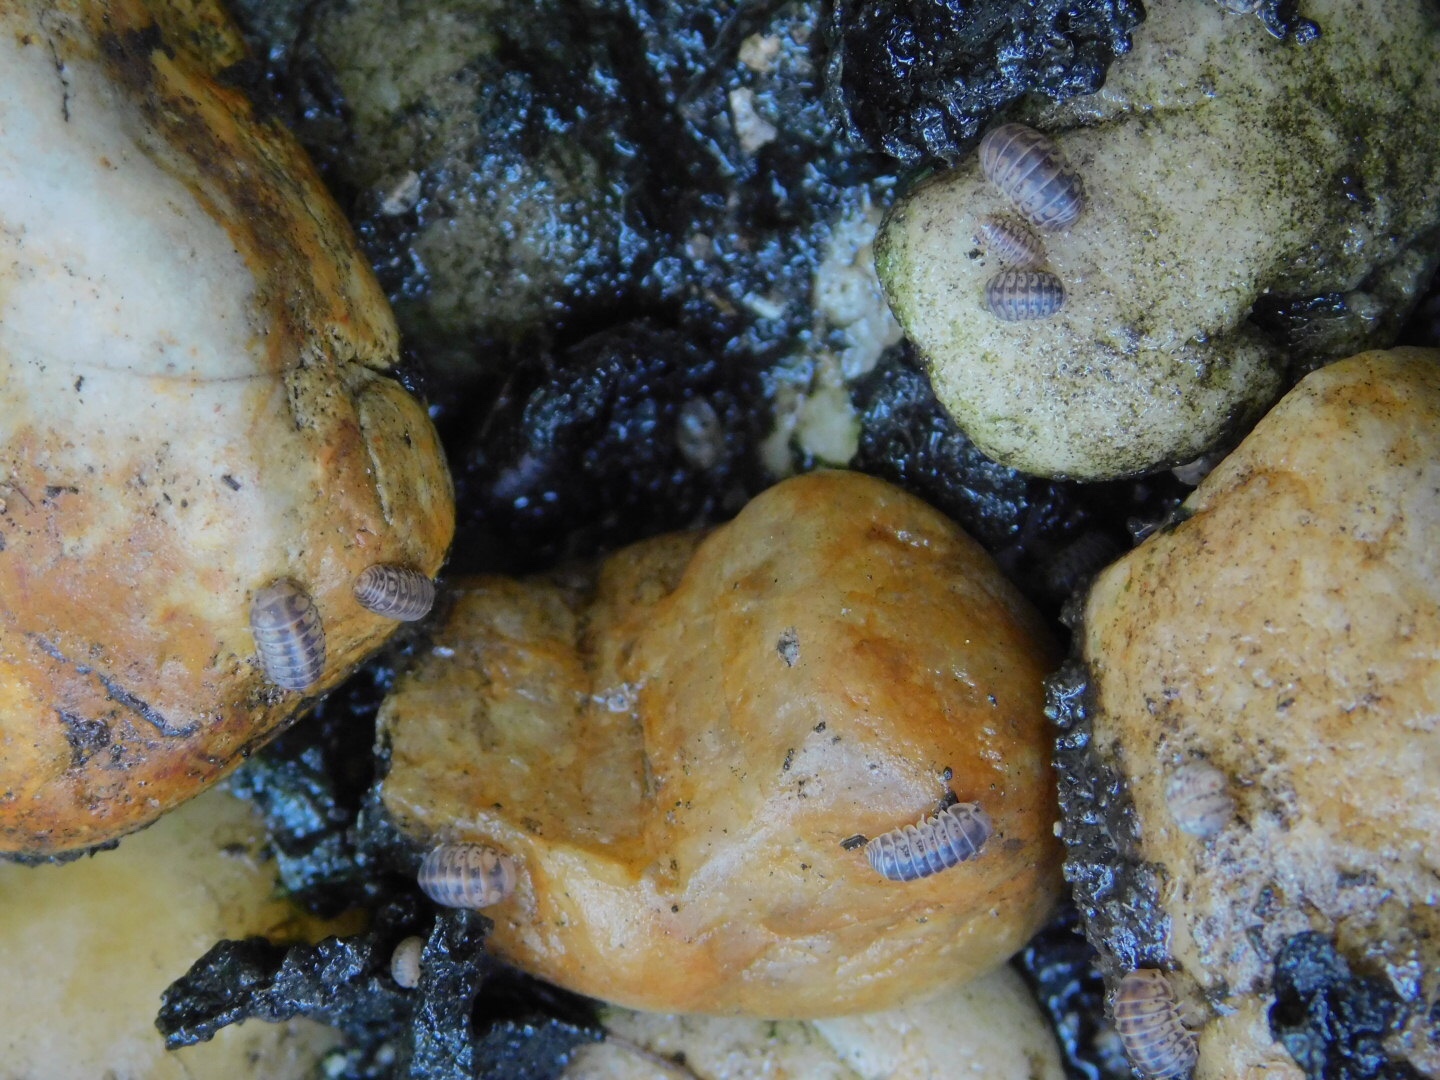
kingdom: Animalia
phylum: Arthropoda
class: Malacostraca
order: Isopoda
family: Armadillidae
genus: Venezillo
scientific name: Venezillo parvus
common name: Pillbug
